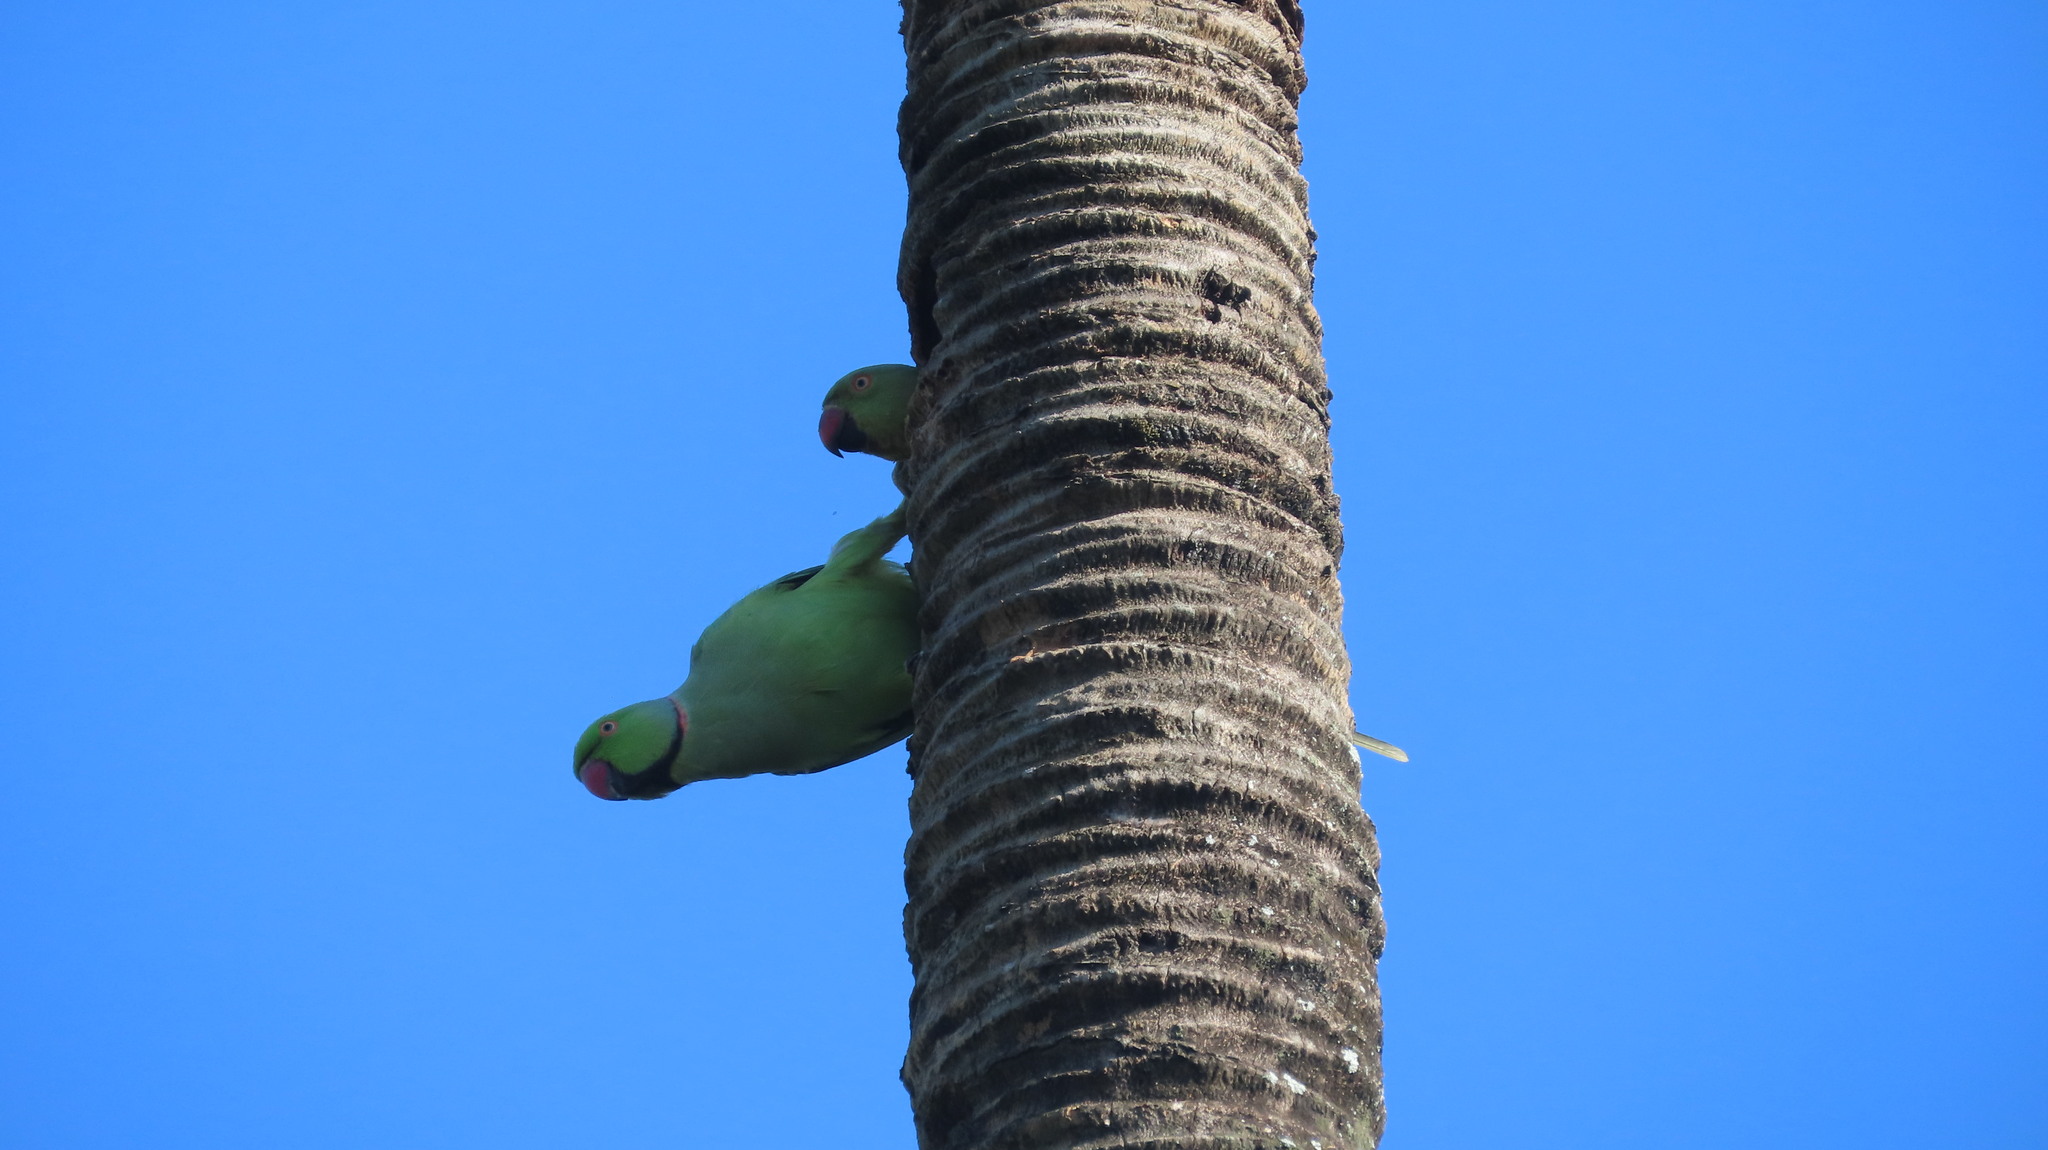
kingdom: Animalia
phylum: Chordata
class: Aves
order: Psittaciformes
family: Psittacidae
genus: Psittacula
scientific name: Psittacula krameri
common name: Rose-ringed parakeet
